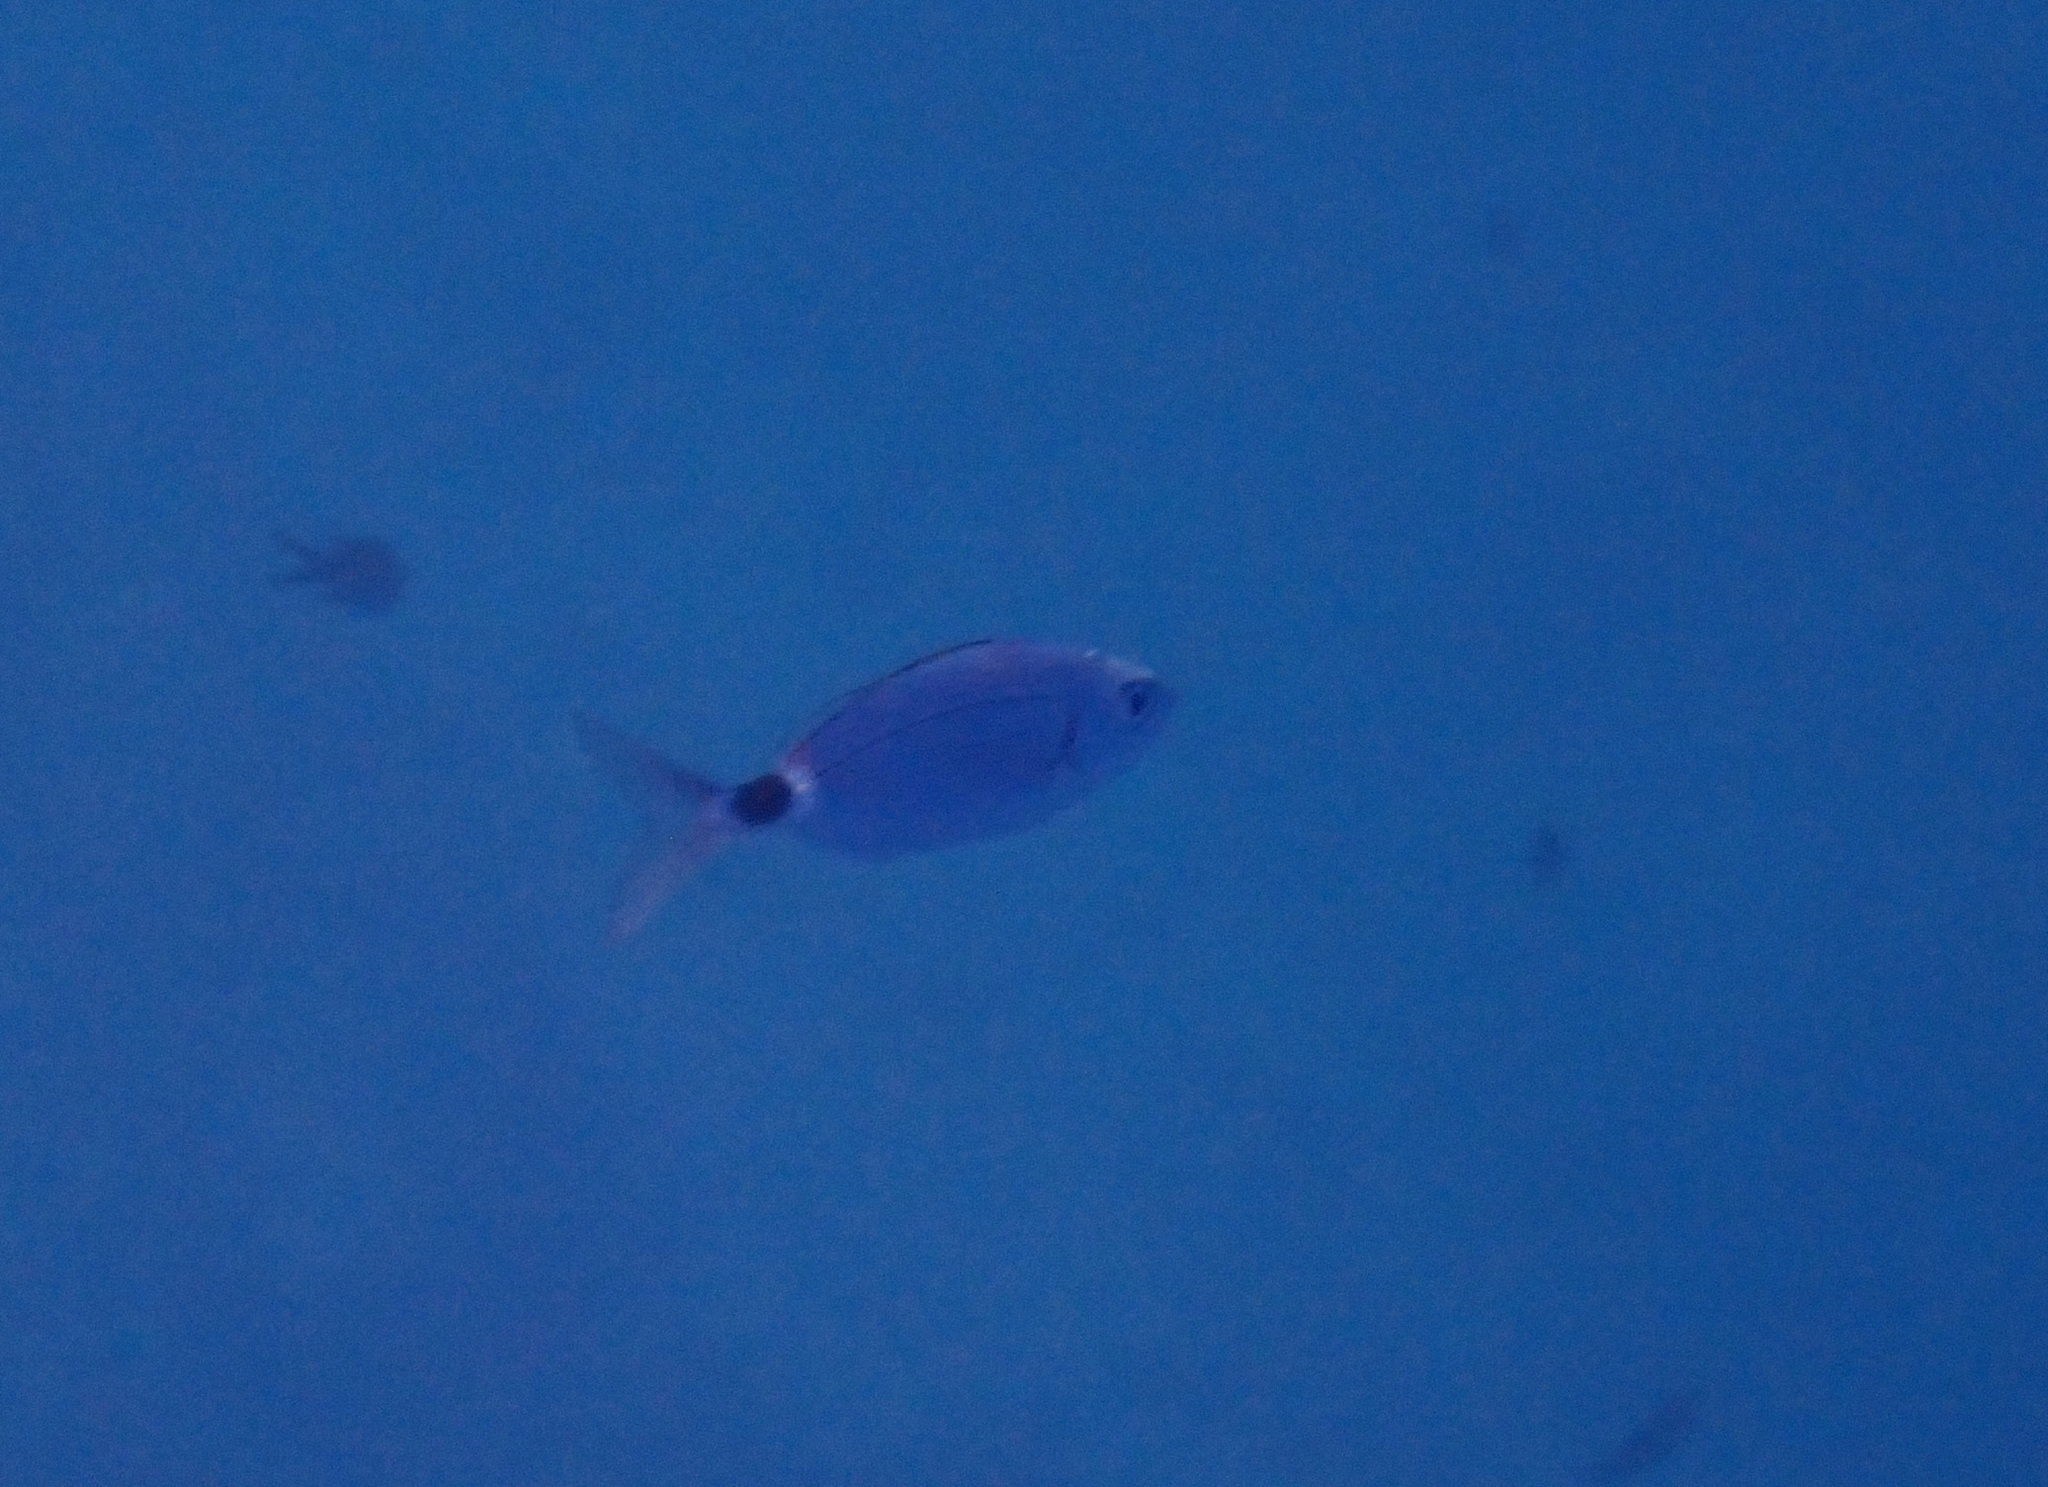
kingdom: Animalia
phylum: Chordata
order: Perciformes
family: Sparidae
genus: Oblada
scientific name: Oblada melanura
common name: Saddled seabream
